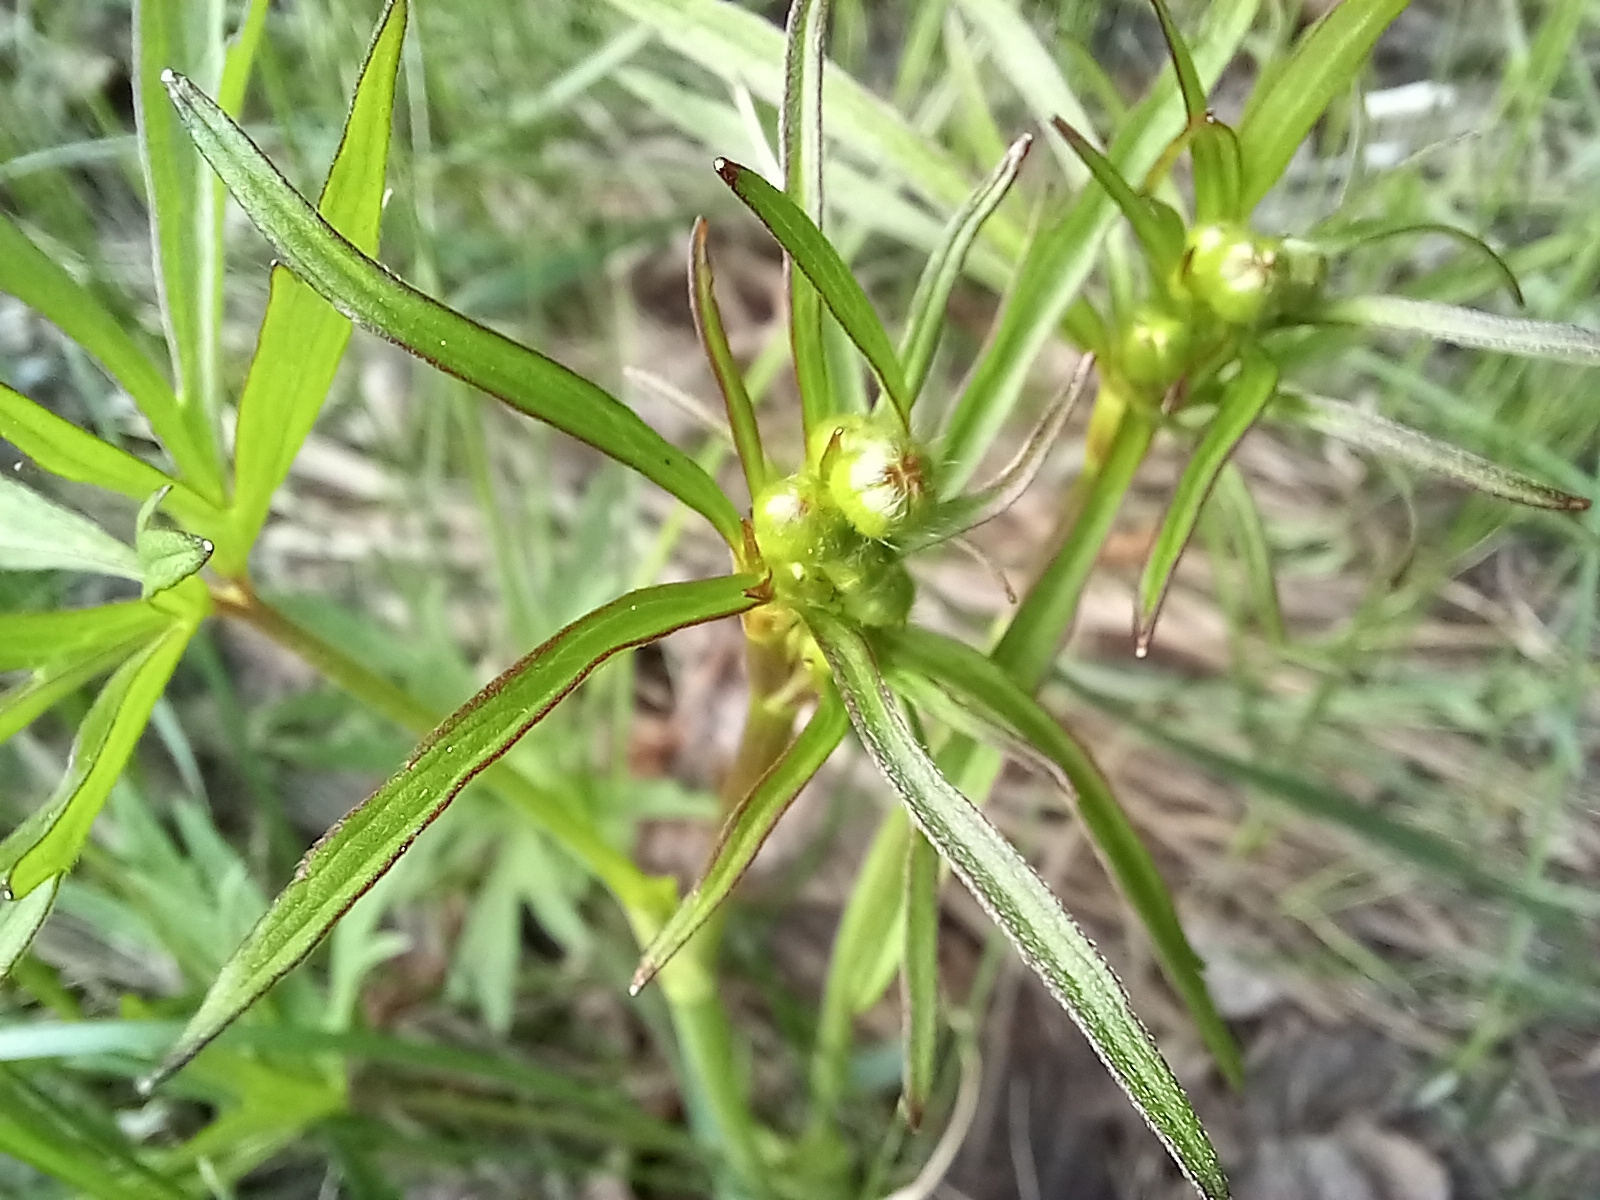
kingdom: Plantae
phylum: Tracheophyta
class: Magnoliopsida
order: Ranunculales
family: Ranunculaceae
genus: Ranunculus
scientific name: Ranunculus acris
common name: Meadow buttercup
